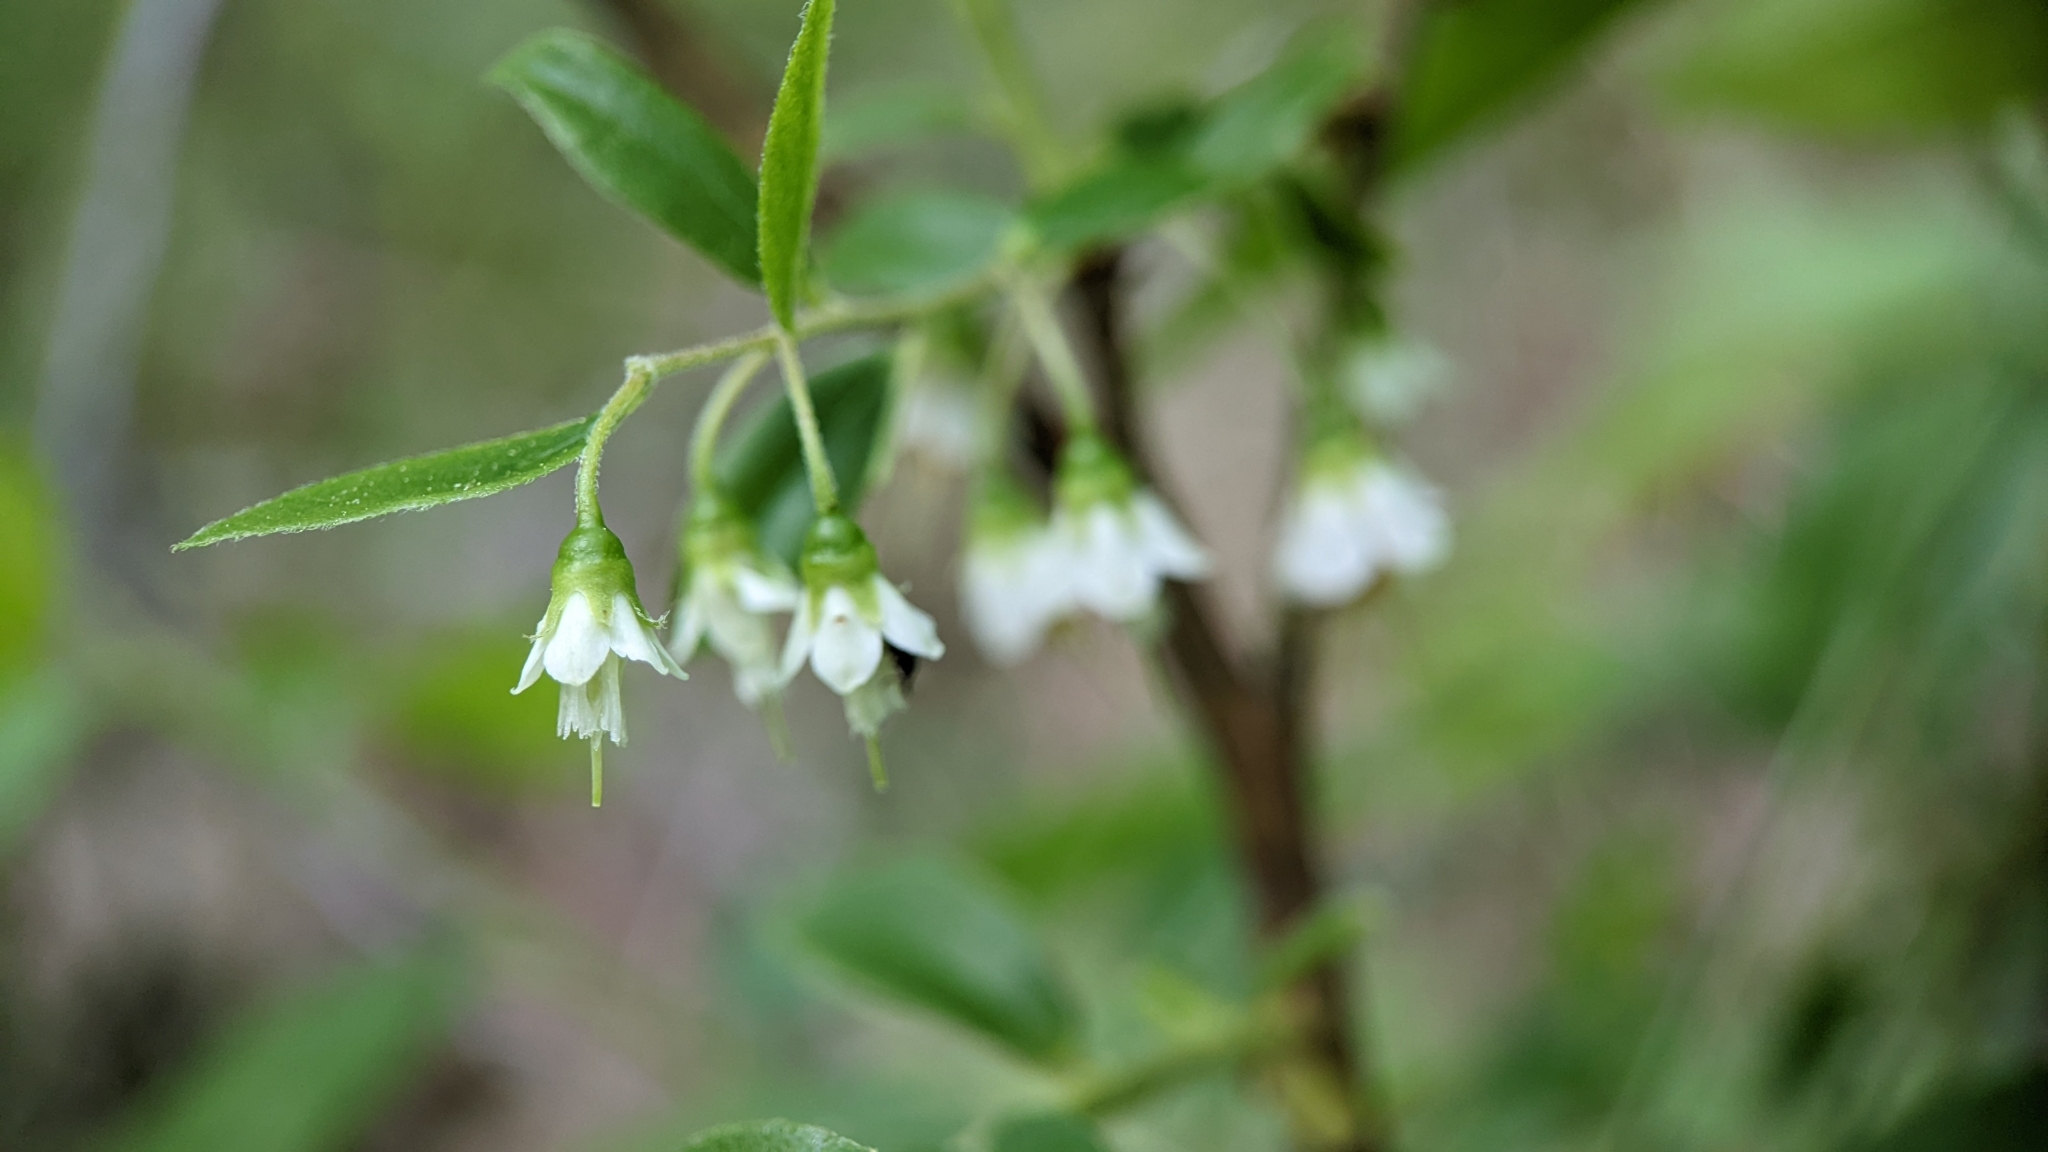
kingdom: Plantae
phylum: Tracheophyta
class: Magnoliopsida
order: Ericales
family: Ericaceae
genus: Vaccinium
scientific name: Vaccinium stamineum
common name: Deerberry
